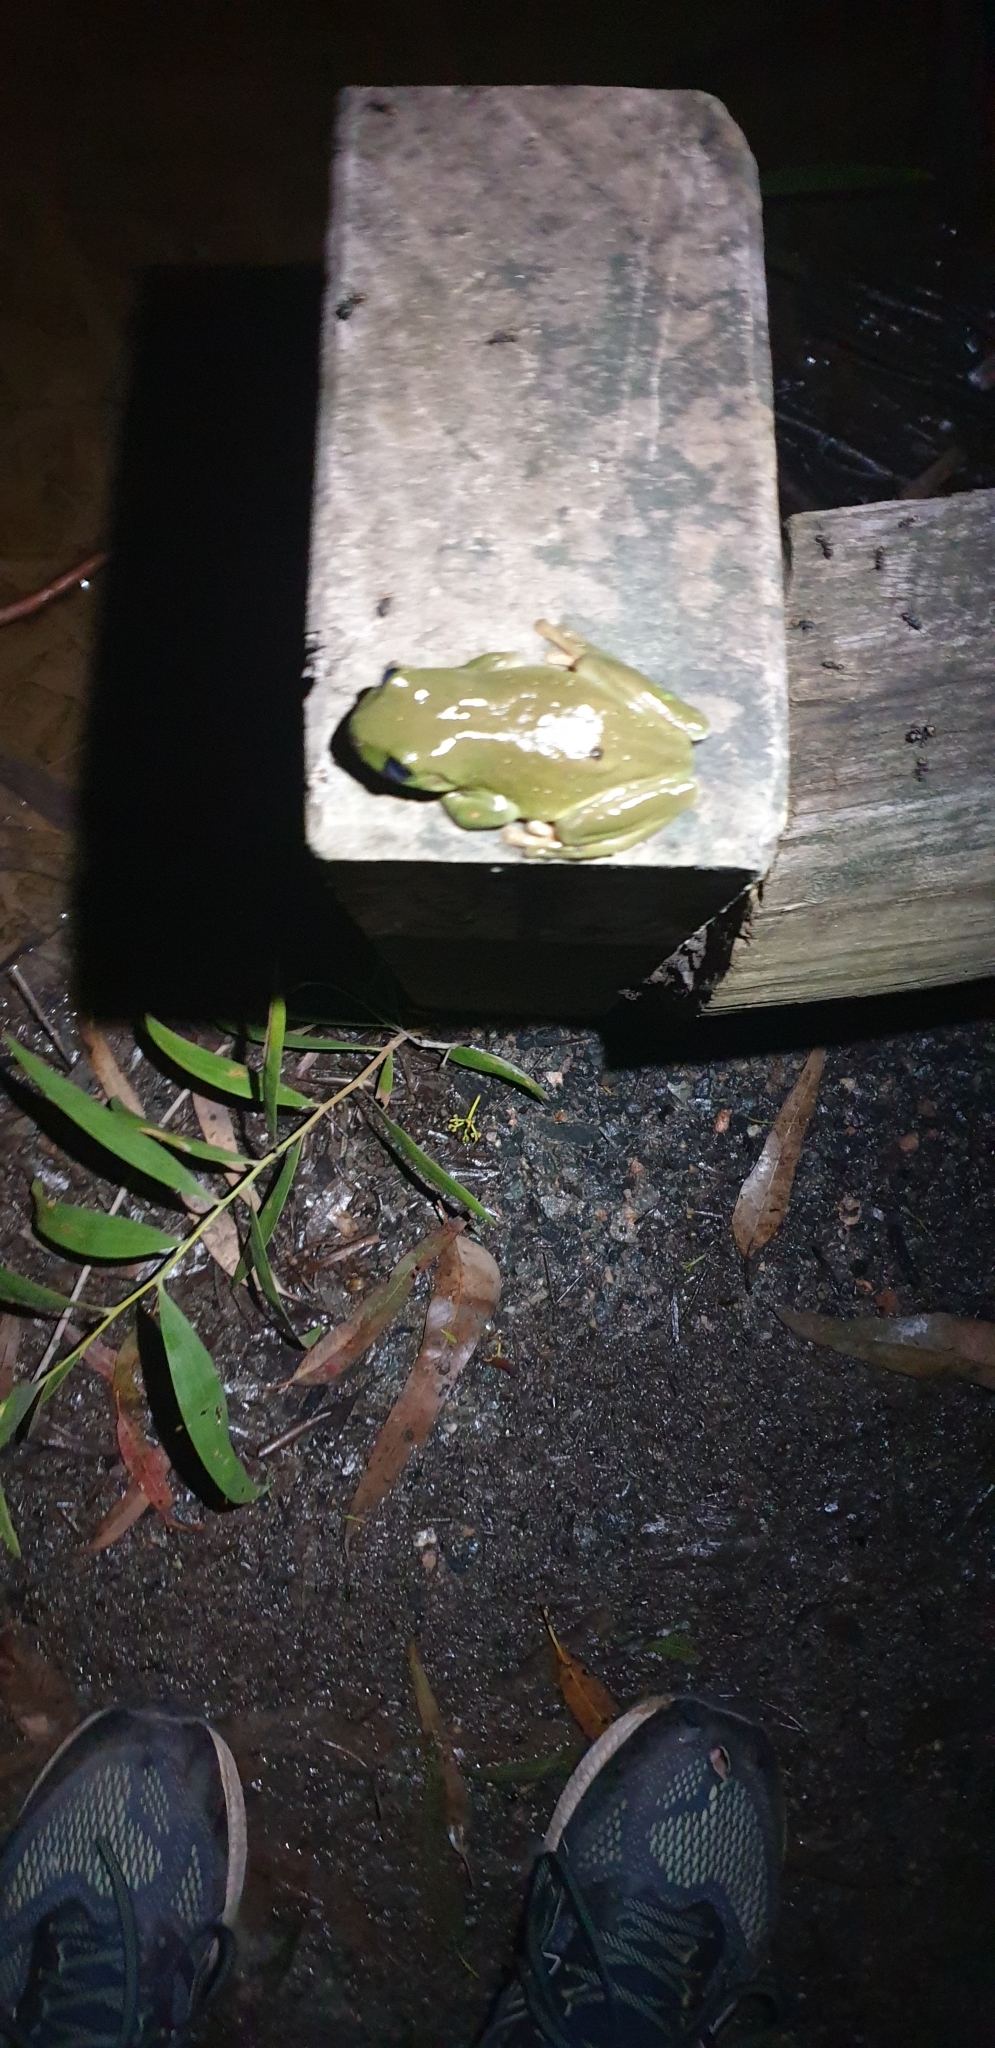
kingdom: Animalia
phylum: Chordata
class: Amphibia
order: Anura
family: Pelodryadidae
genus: Ranoidea
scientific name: Ranoidea caerulea
